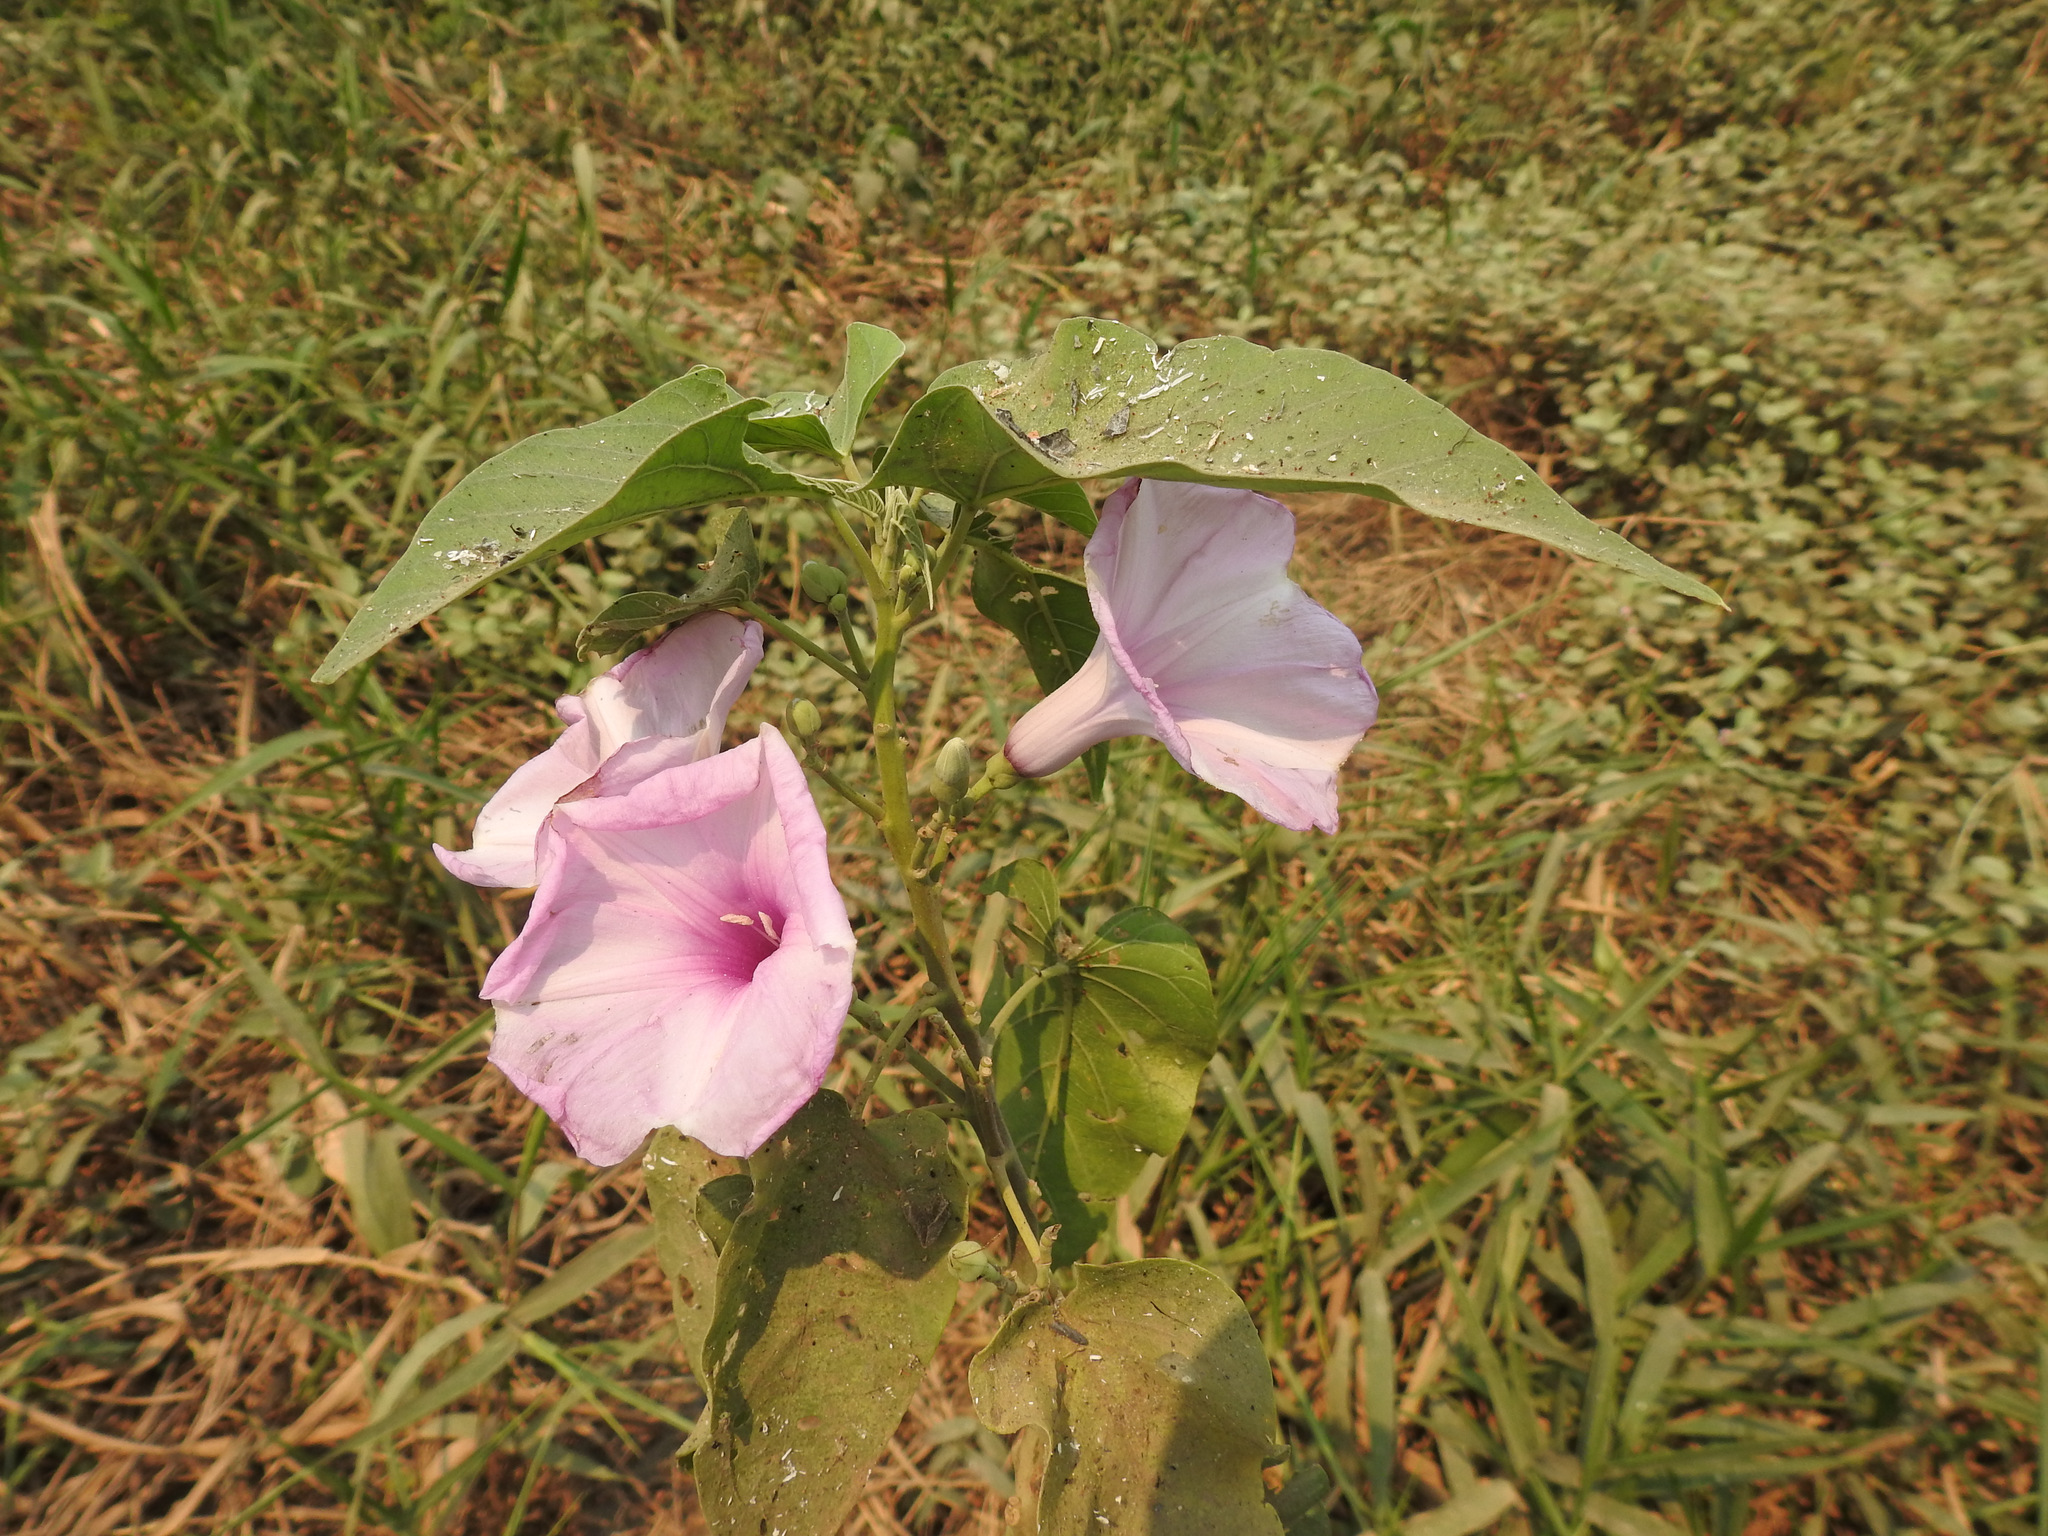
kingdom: Plantae
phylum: Tracheophyta
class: Magnoliopsida
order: Solanales
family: Convolvulaceae
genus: Ipomoea
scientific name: Ipomoea carnea
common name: Morning-glory
